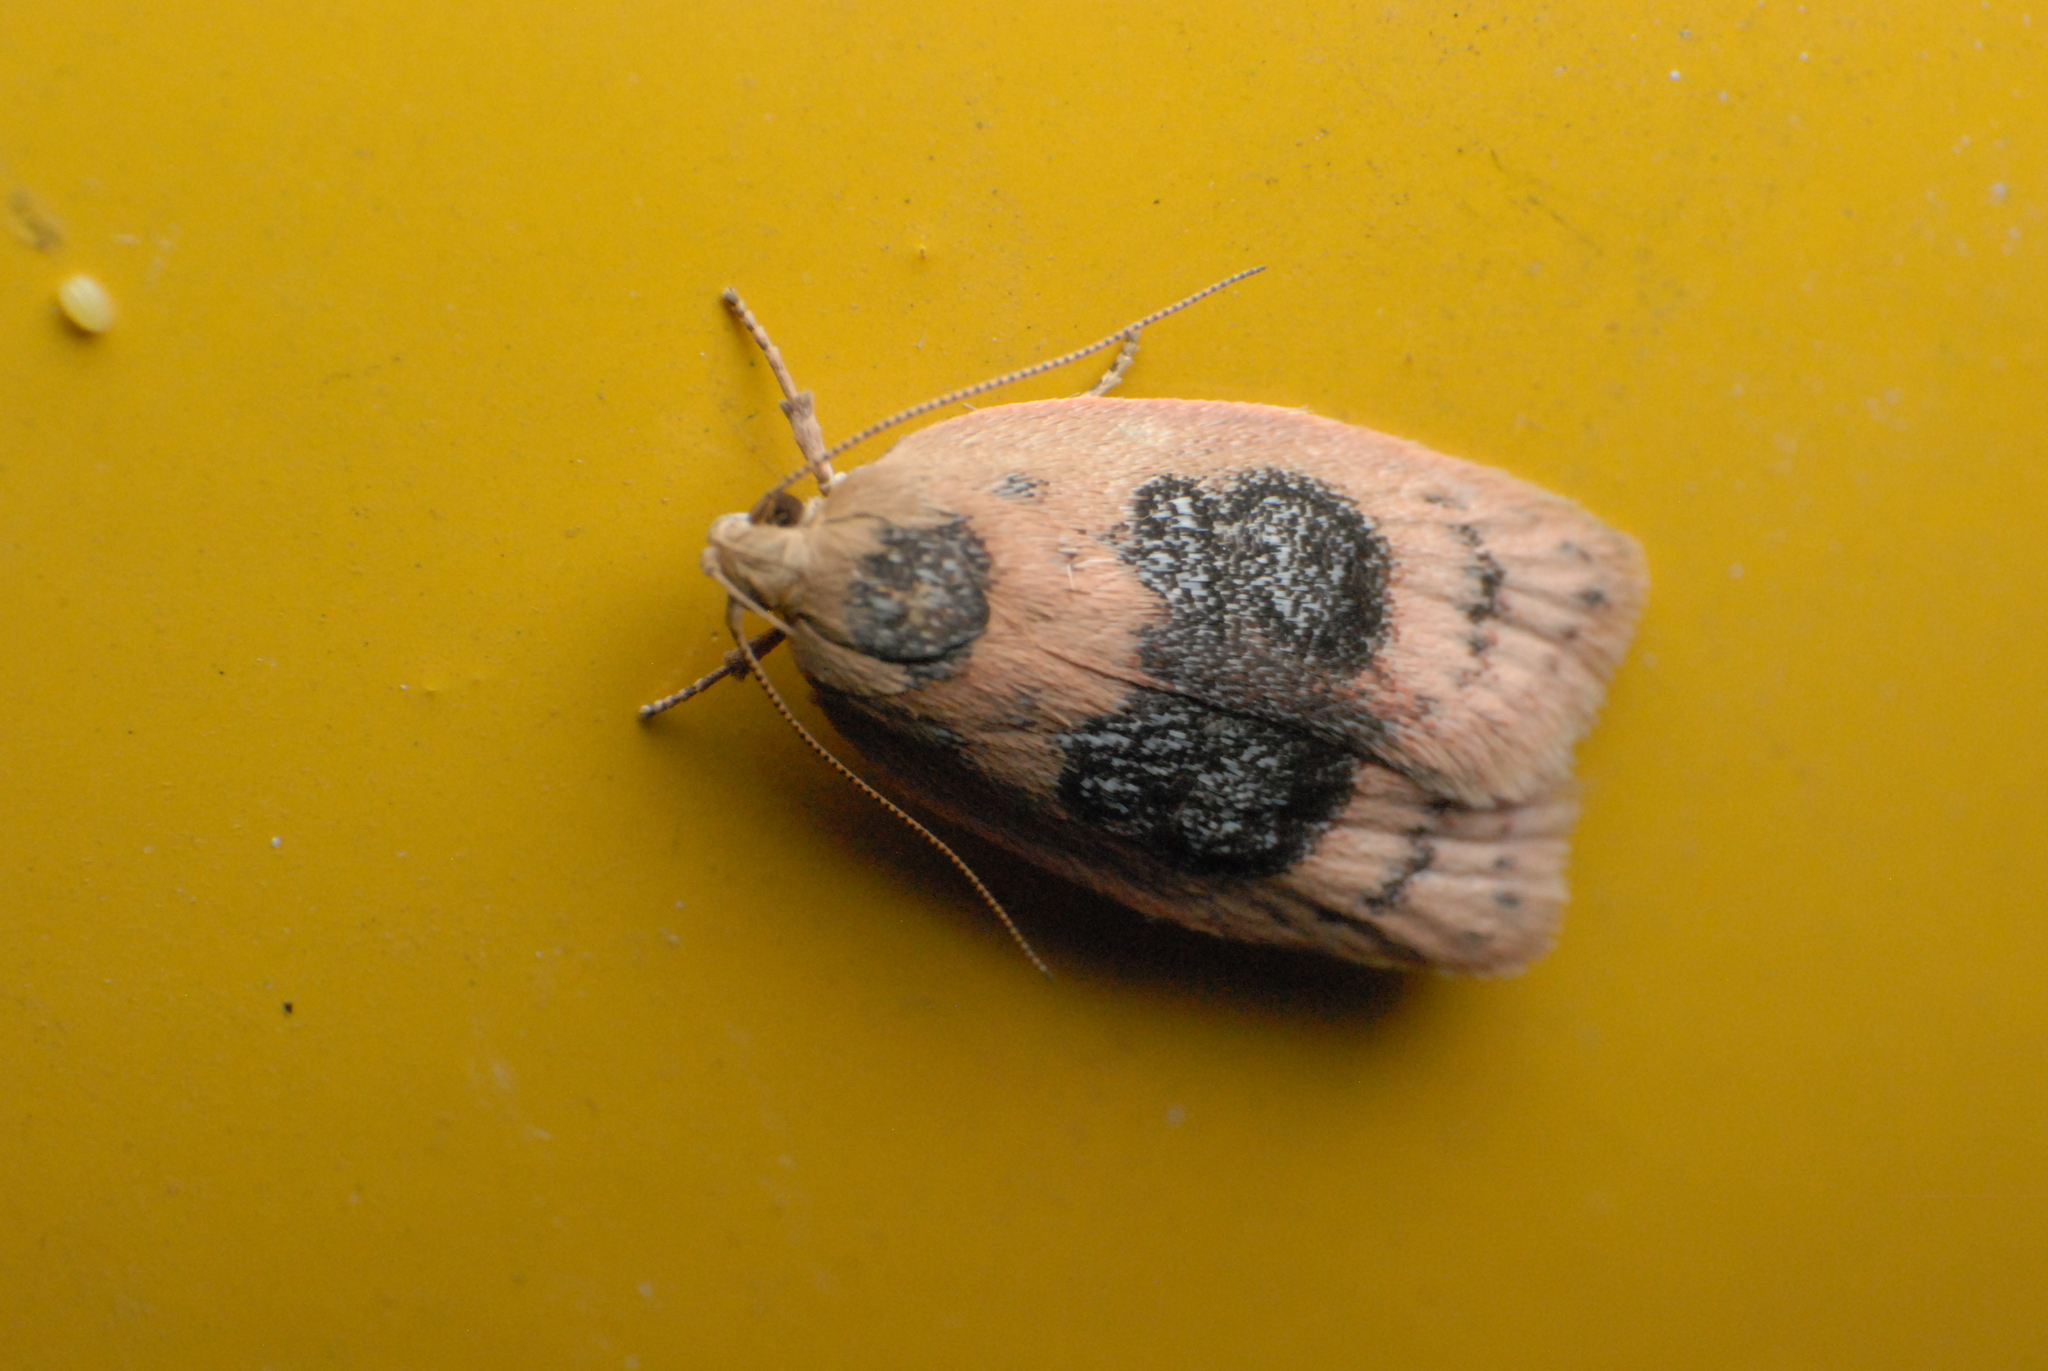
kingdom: Animalia
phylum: Arthropoda
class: Insecta
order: Lepidoptera
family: Oecophoridae
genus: Garrha
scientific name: Garrha ocellifera
